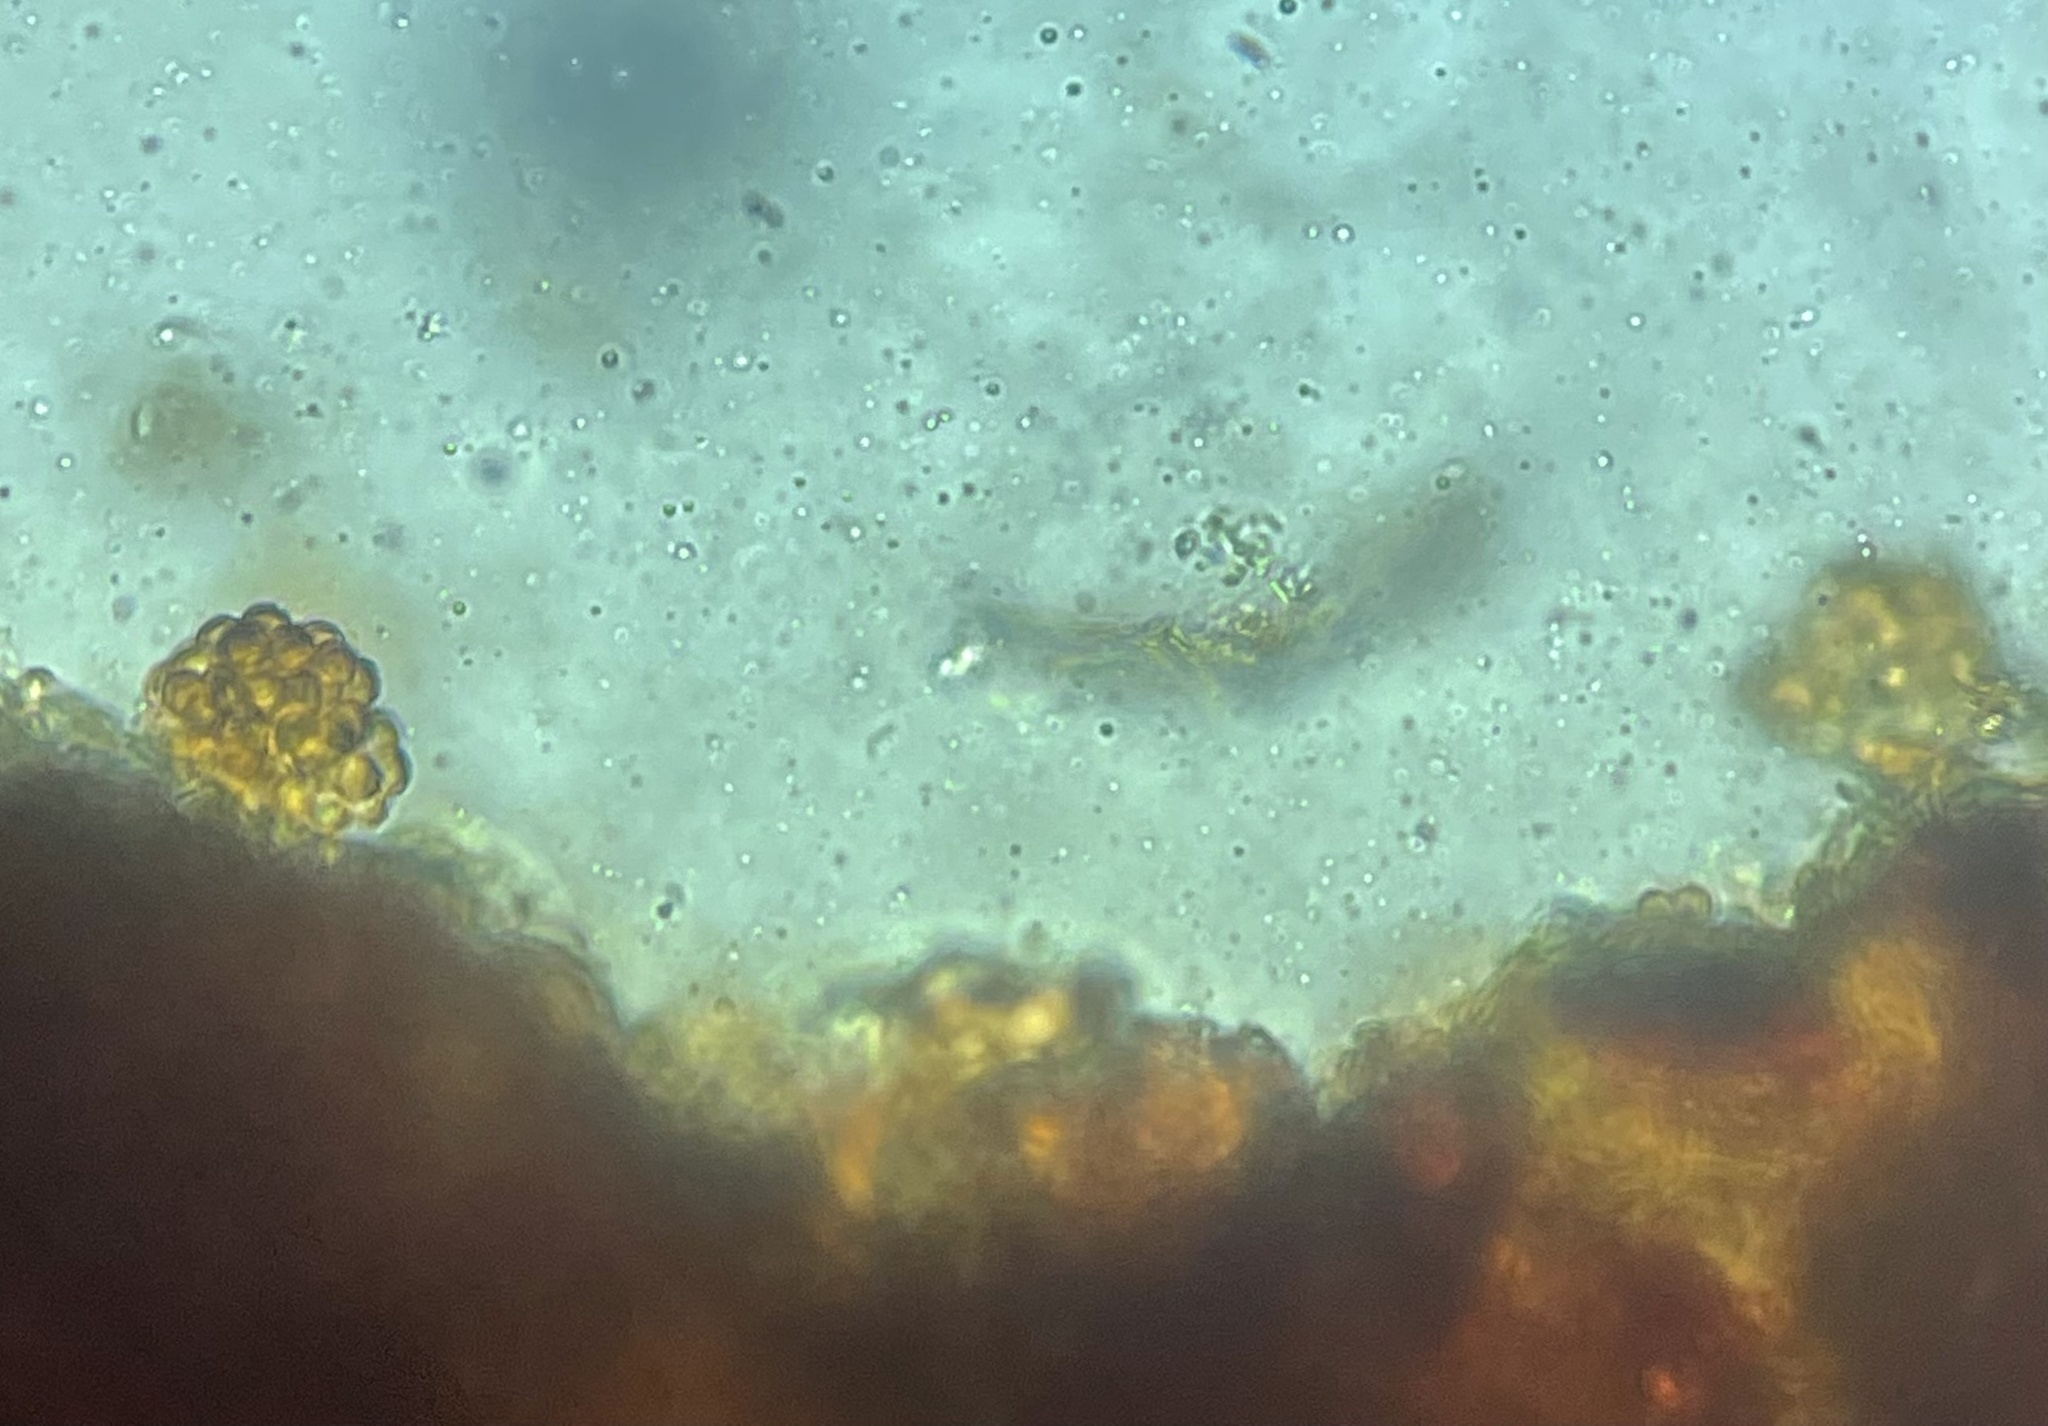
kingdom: Fungi
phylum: Basidiomycota
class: Pucciniomycetes
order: Pucciniales
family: Cronartiaceae
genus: Cronartium
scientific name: Cronartium quercuum
